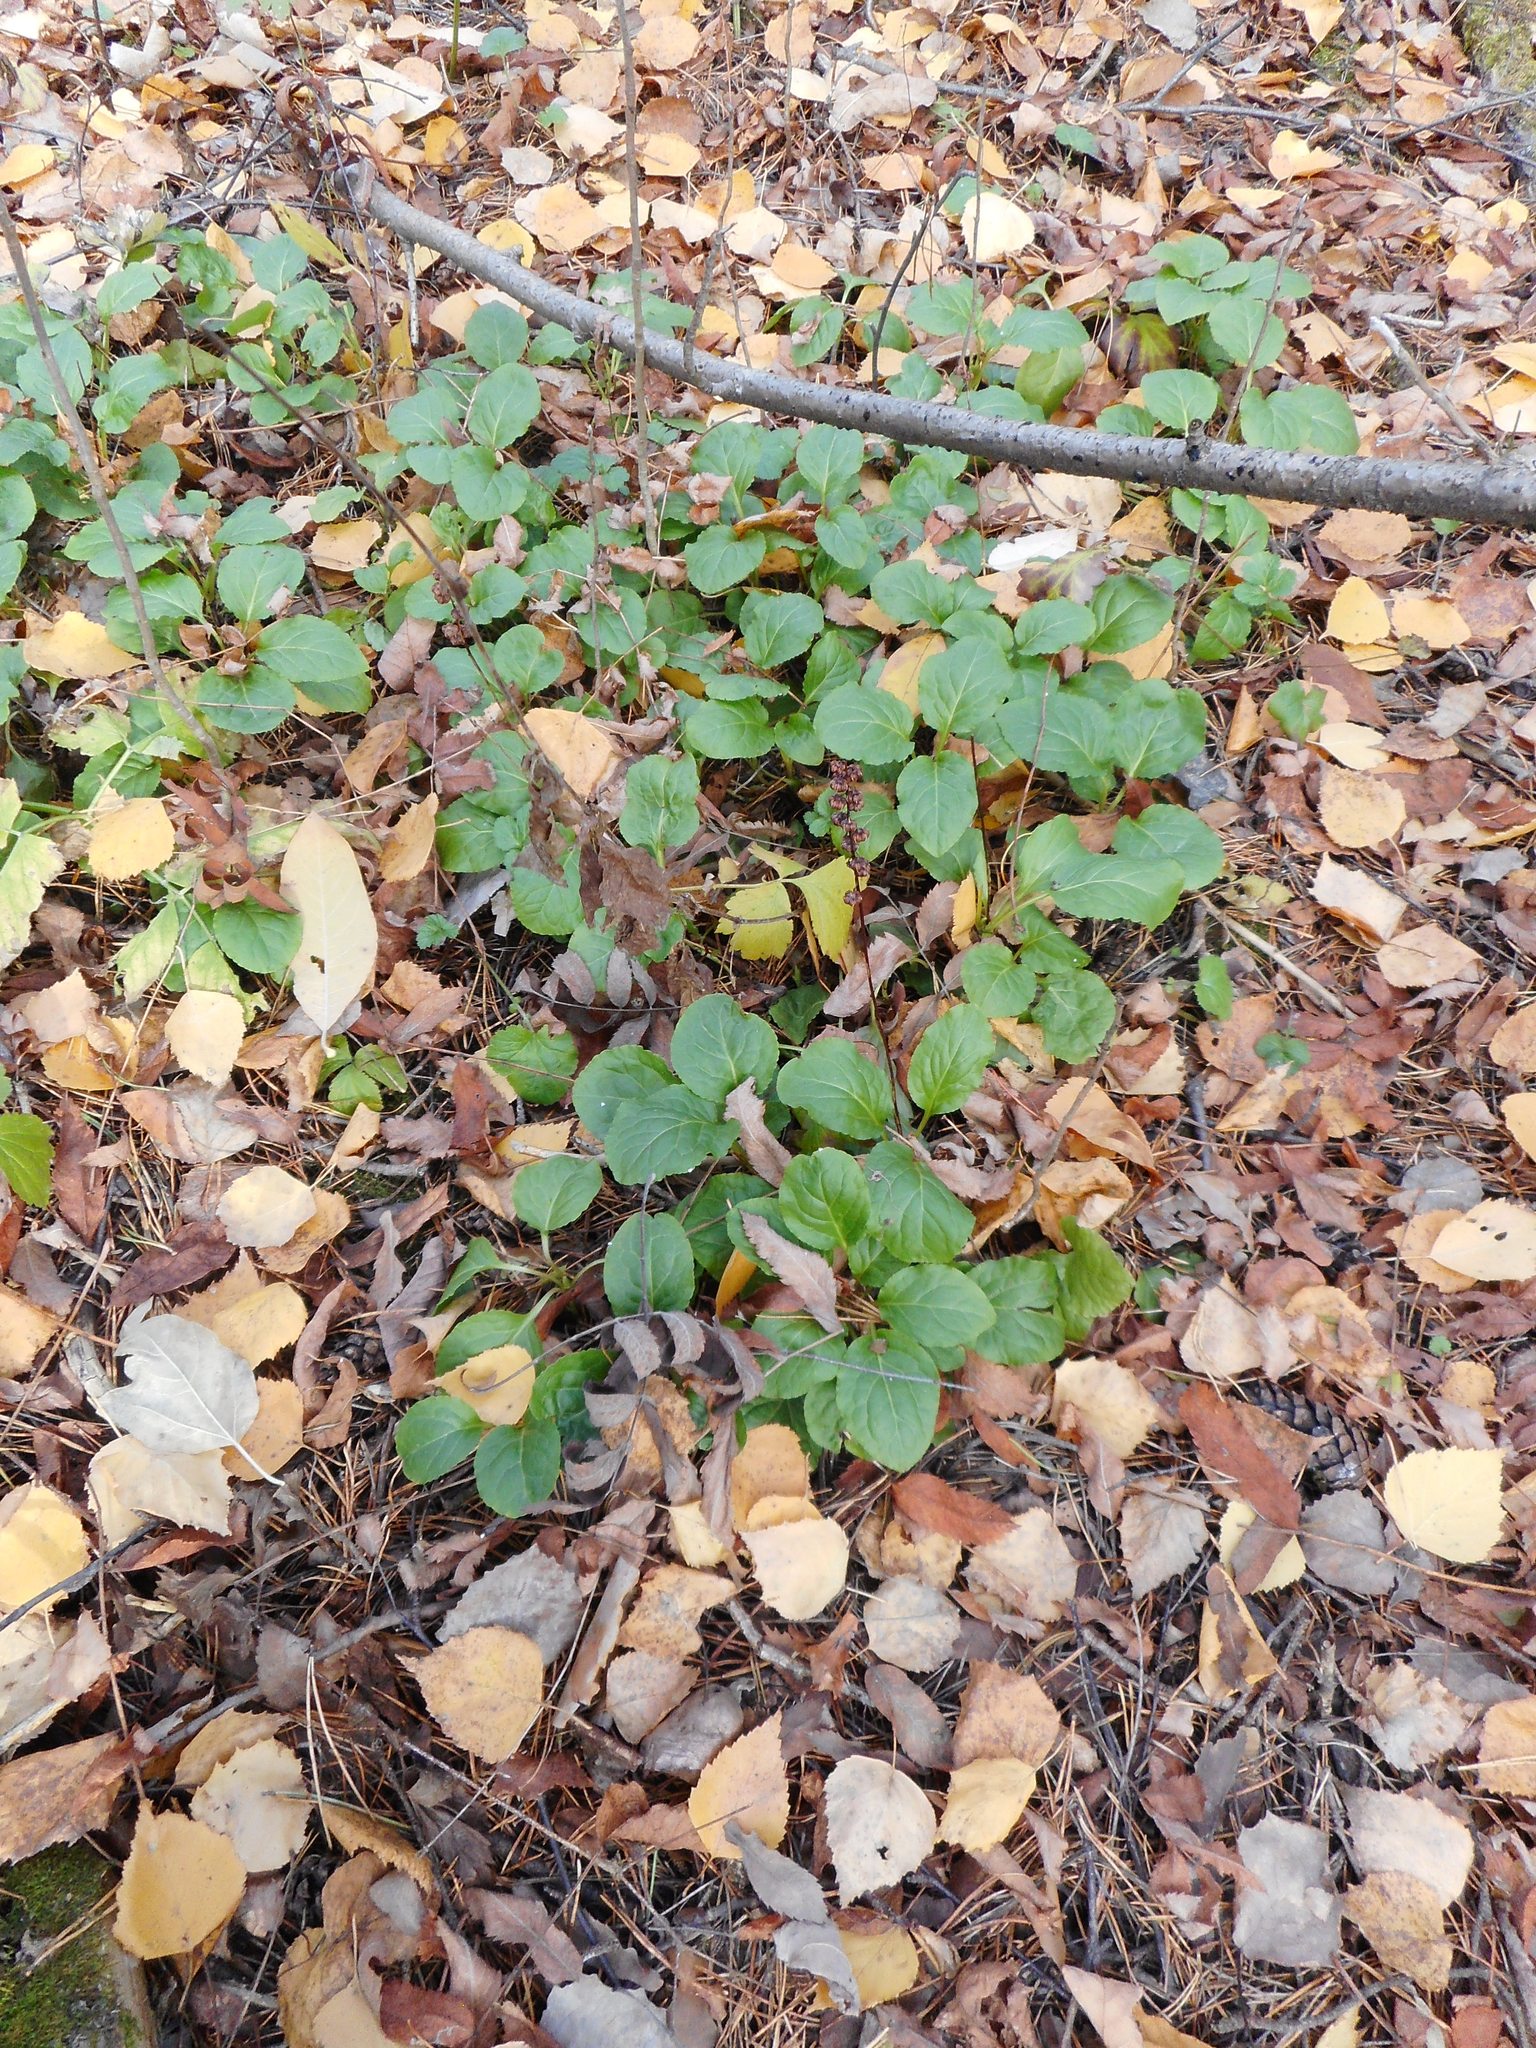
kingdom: Plantae
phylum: Tracheophyta
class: Magnoliopsida
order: Ericales
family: Ericaceae
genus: Pyrola
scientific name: Pyrola minor
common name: Common wintergreen
